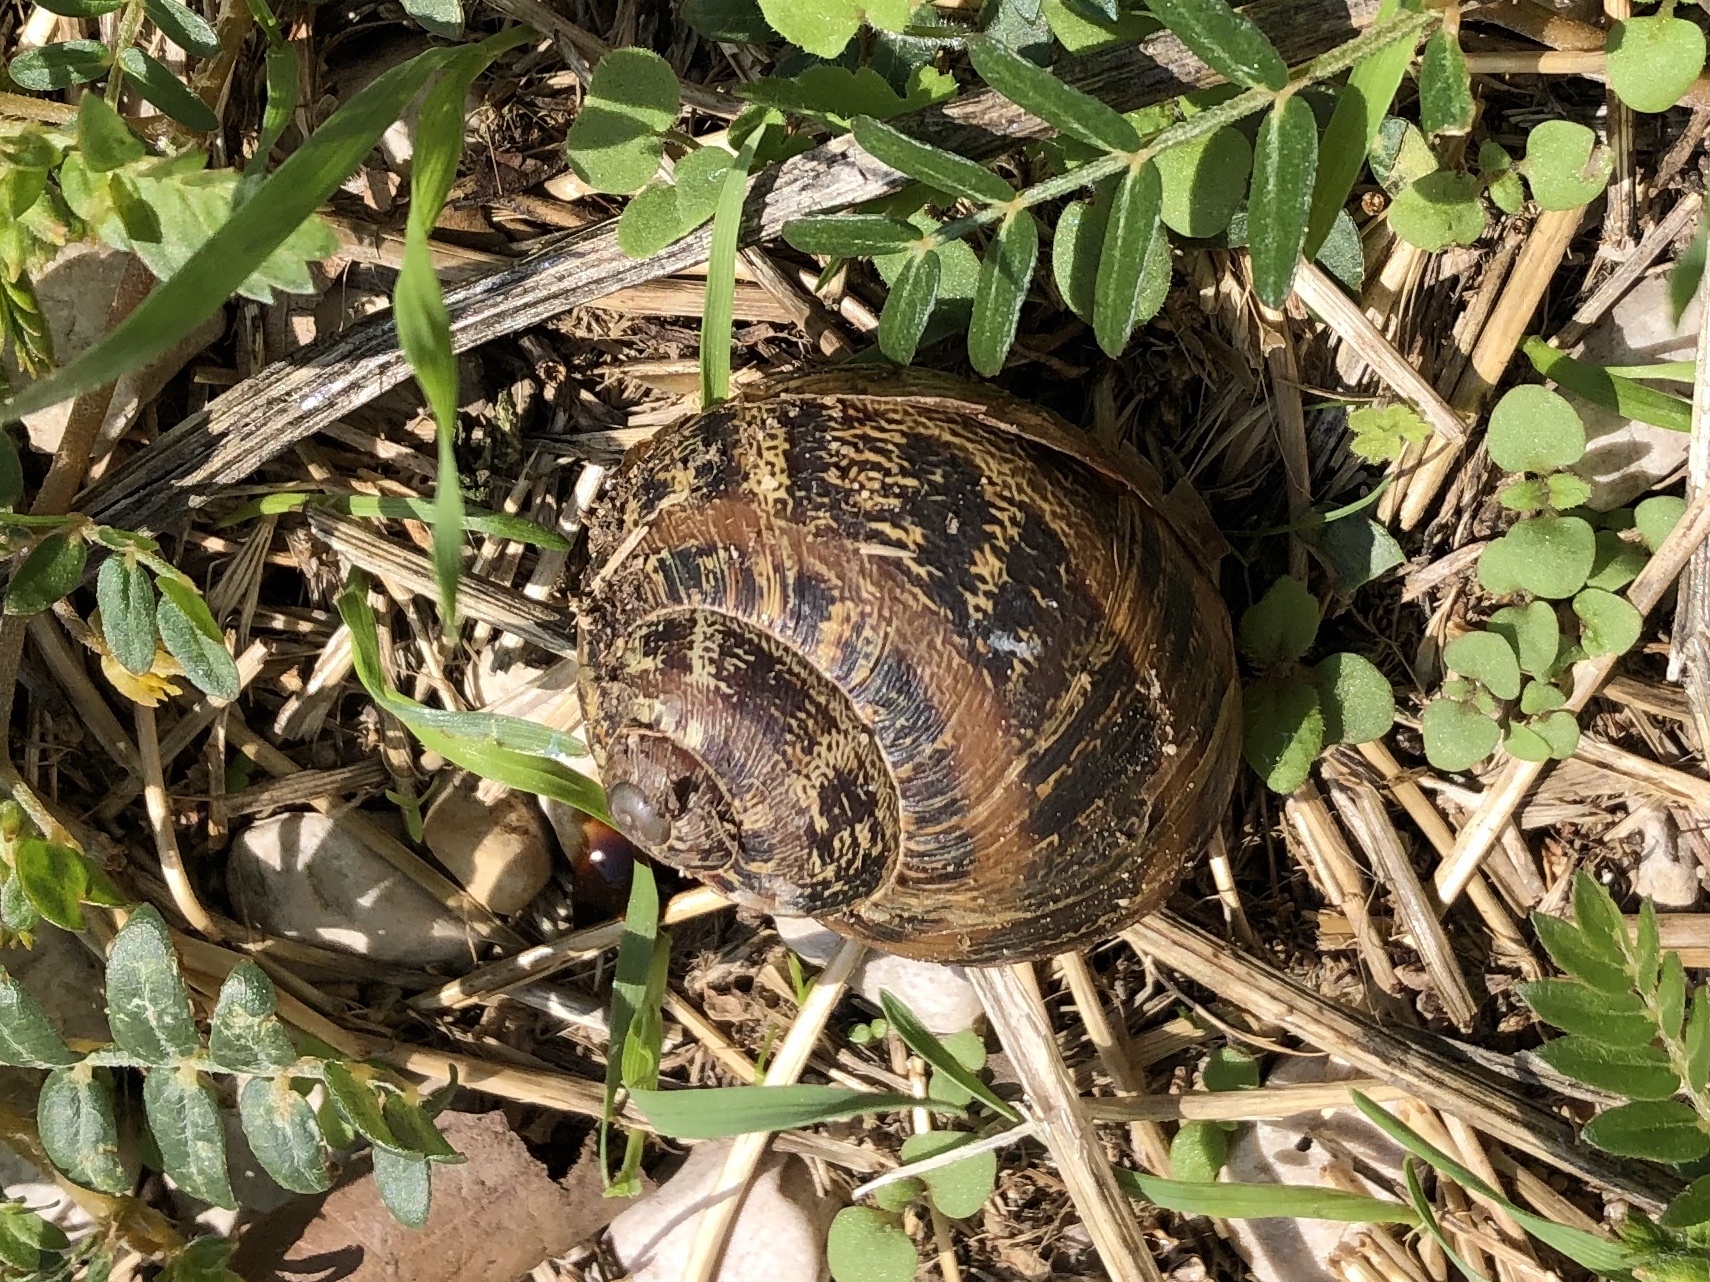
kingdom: Animalia
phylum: Mollusca
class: Gastropoda
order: Stylommatophora
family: Helicidae
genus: Cornu
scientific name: Cornu aspersum
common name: Brown garden snail
